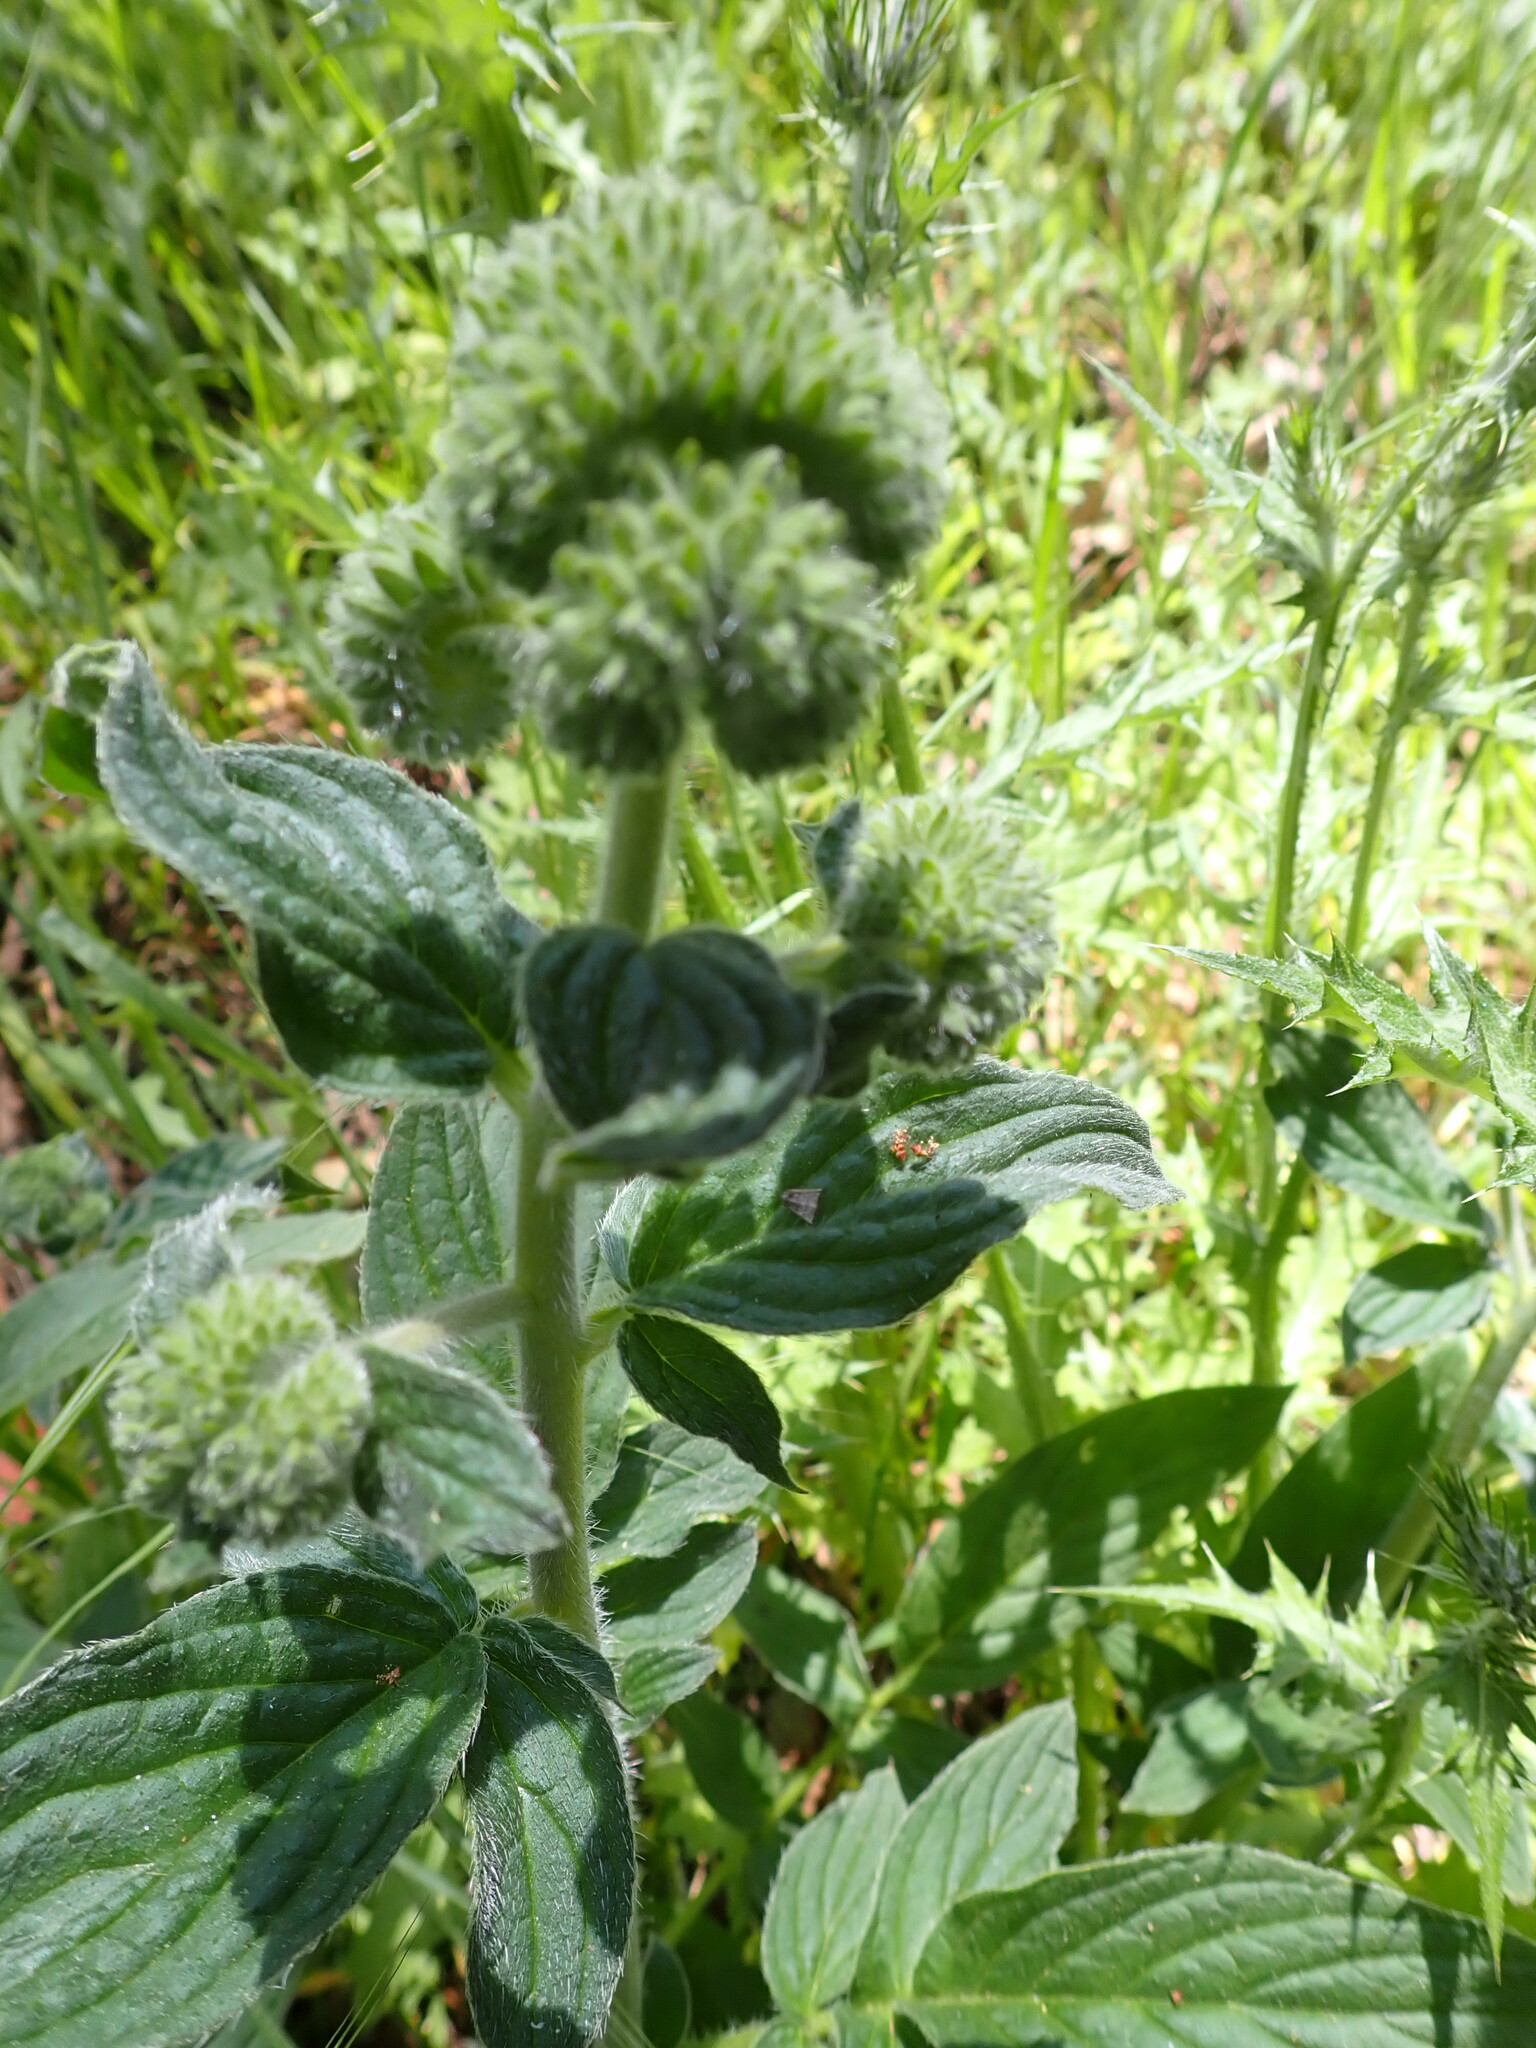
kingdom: Plantae
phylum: Tracheophyta
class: Magnoliopsida
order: Boraginales
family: Hydrophyllaceae
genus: Phacelia
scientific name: Phacelia californica
